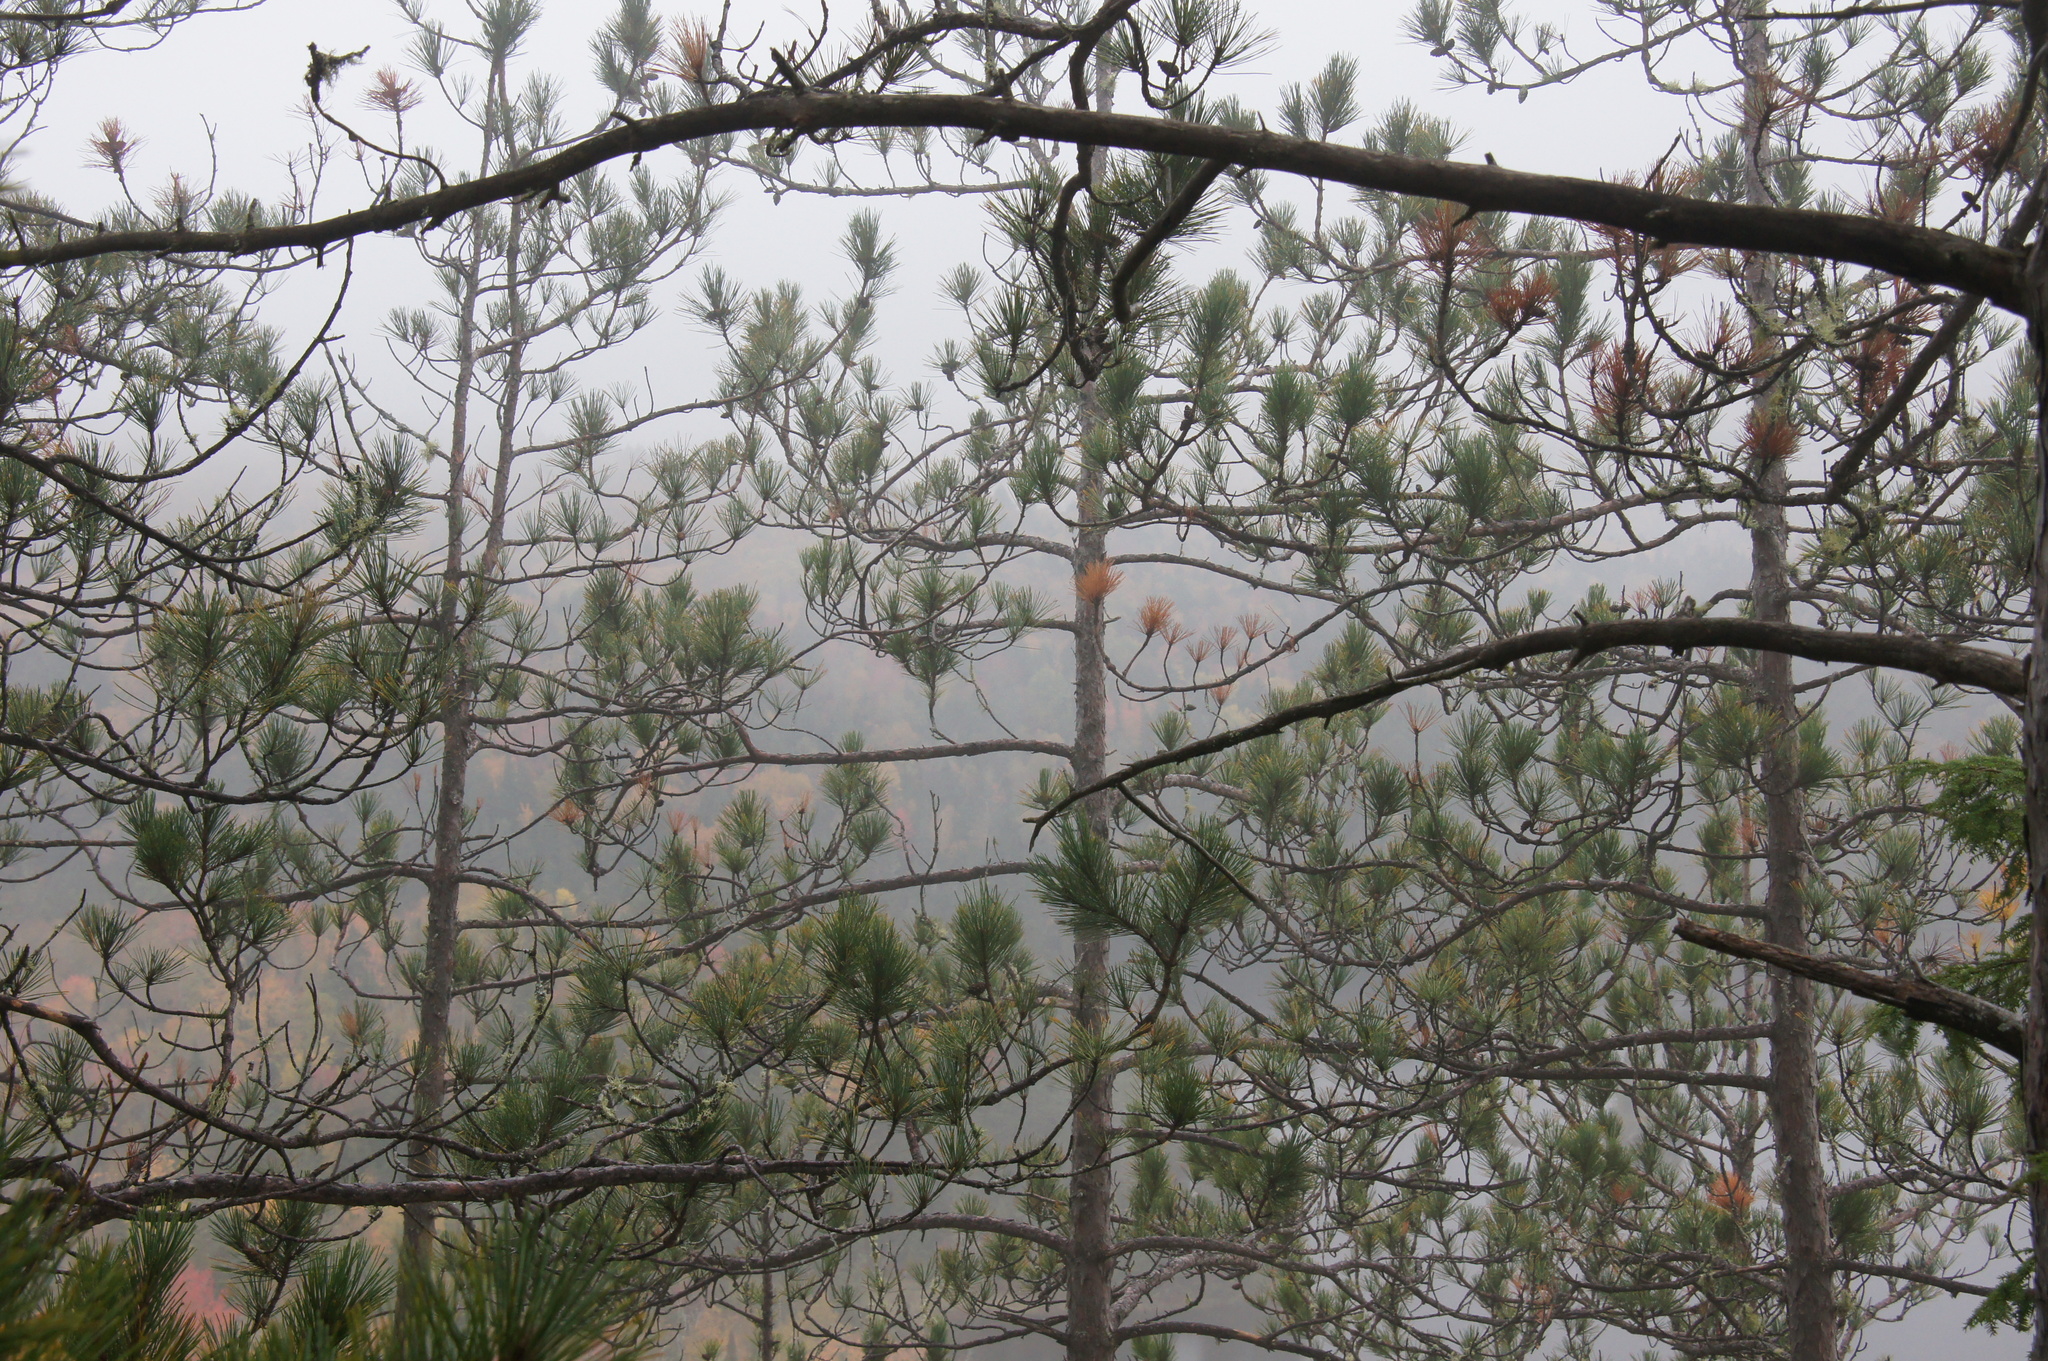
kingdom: Plantae
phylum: Tracheophyta
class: Pinopsida
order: Pinales
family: Pinaceae
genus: Pinus
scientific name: Pinus resinosa
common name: Norway pine
